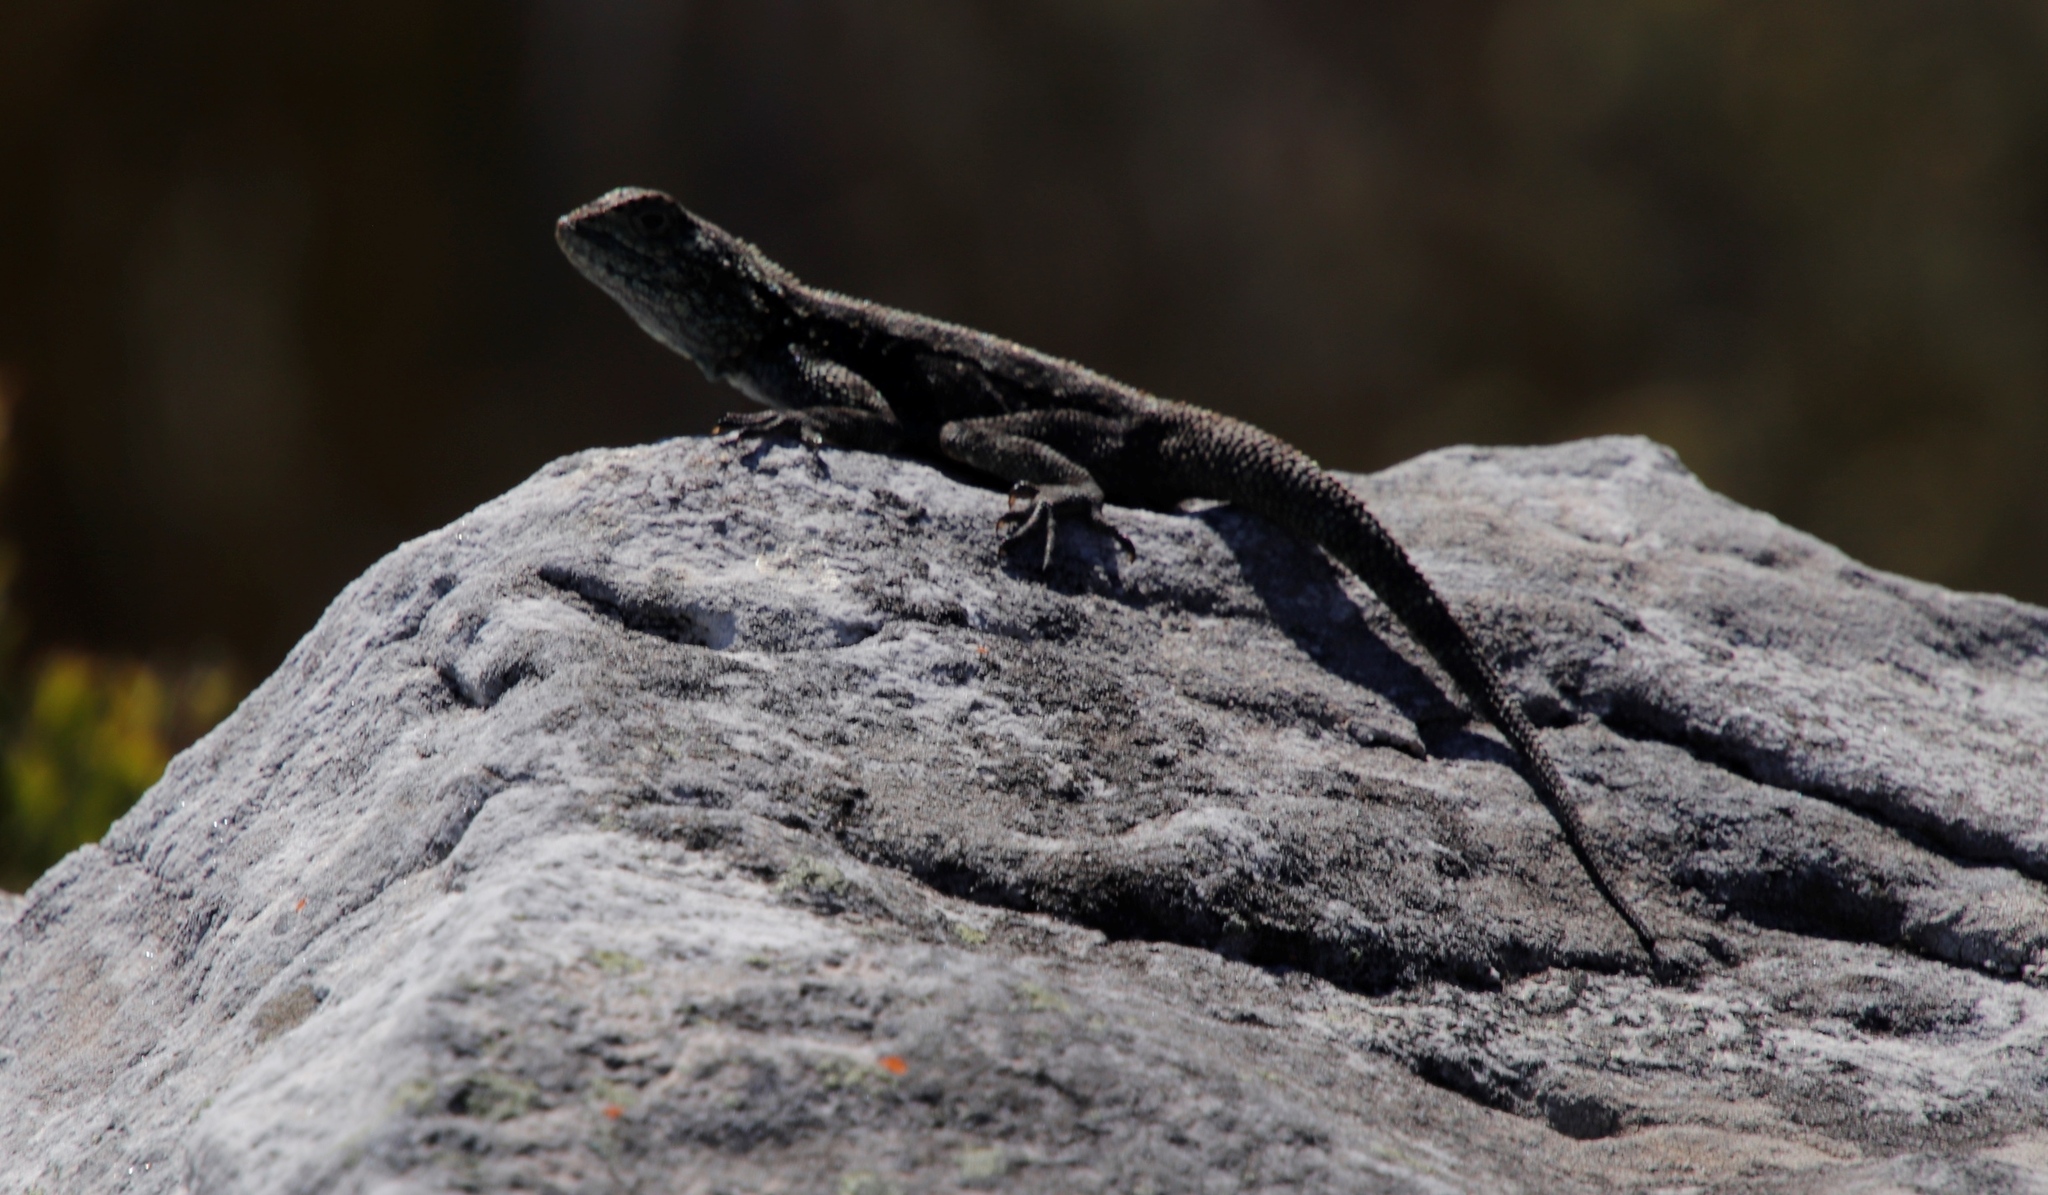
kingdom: Animalia
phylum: Chordata
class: Squamata
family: Agamidae
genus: Agama
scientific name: Agama atra
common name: Southern african rock agama
